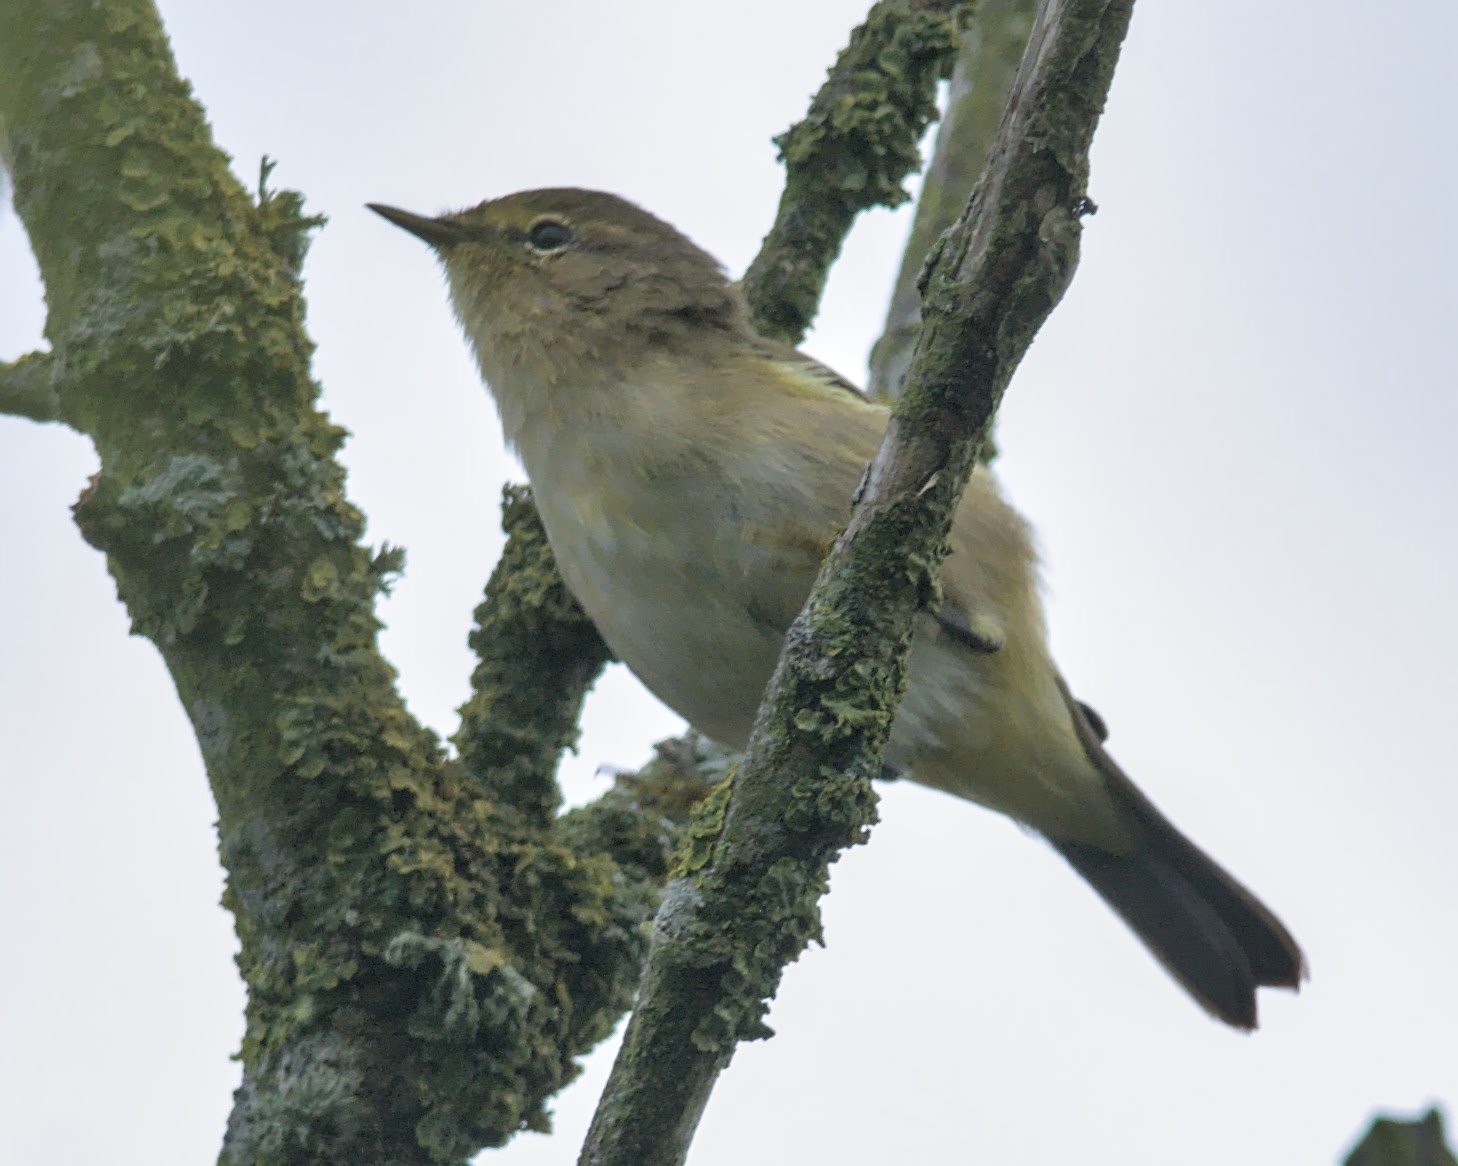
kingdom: Animalia
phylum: Chordata
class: Aves
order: Passeriformes
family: Phylloscopidae
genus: Phylloscopus
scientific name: Phylloscopus collybita
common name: Common chiffchaff
